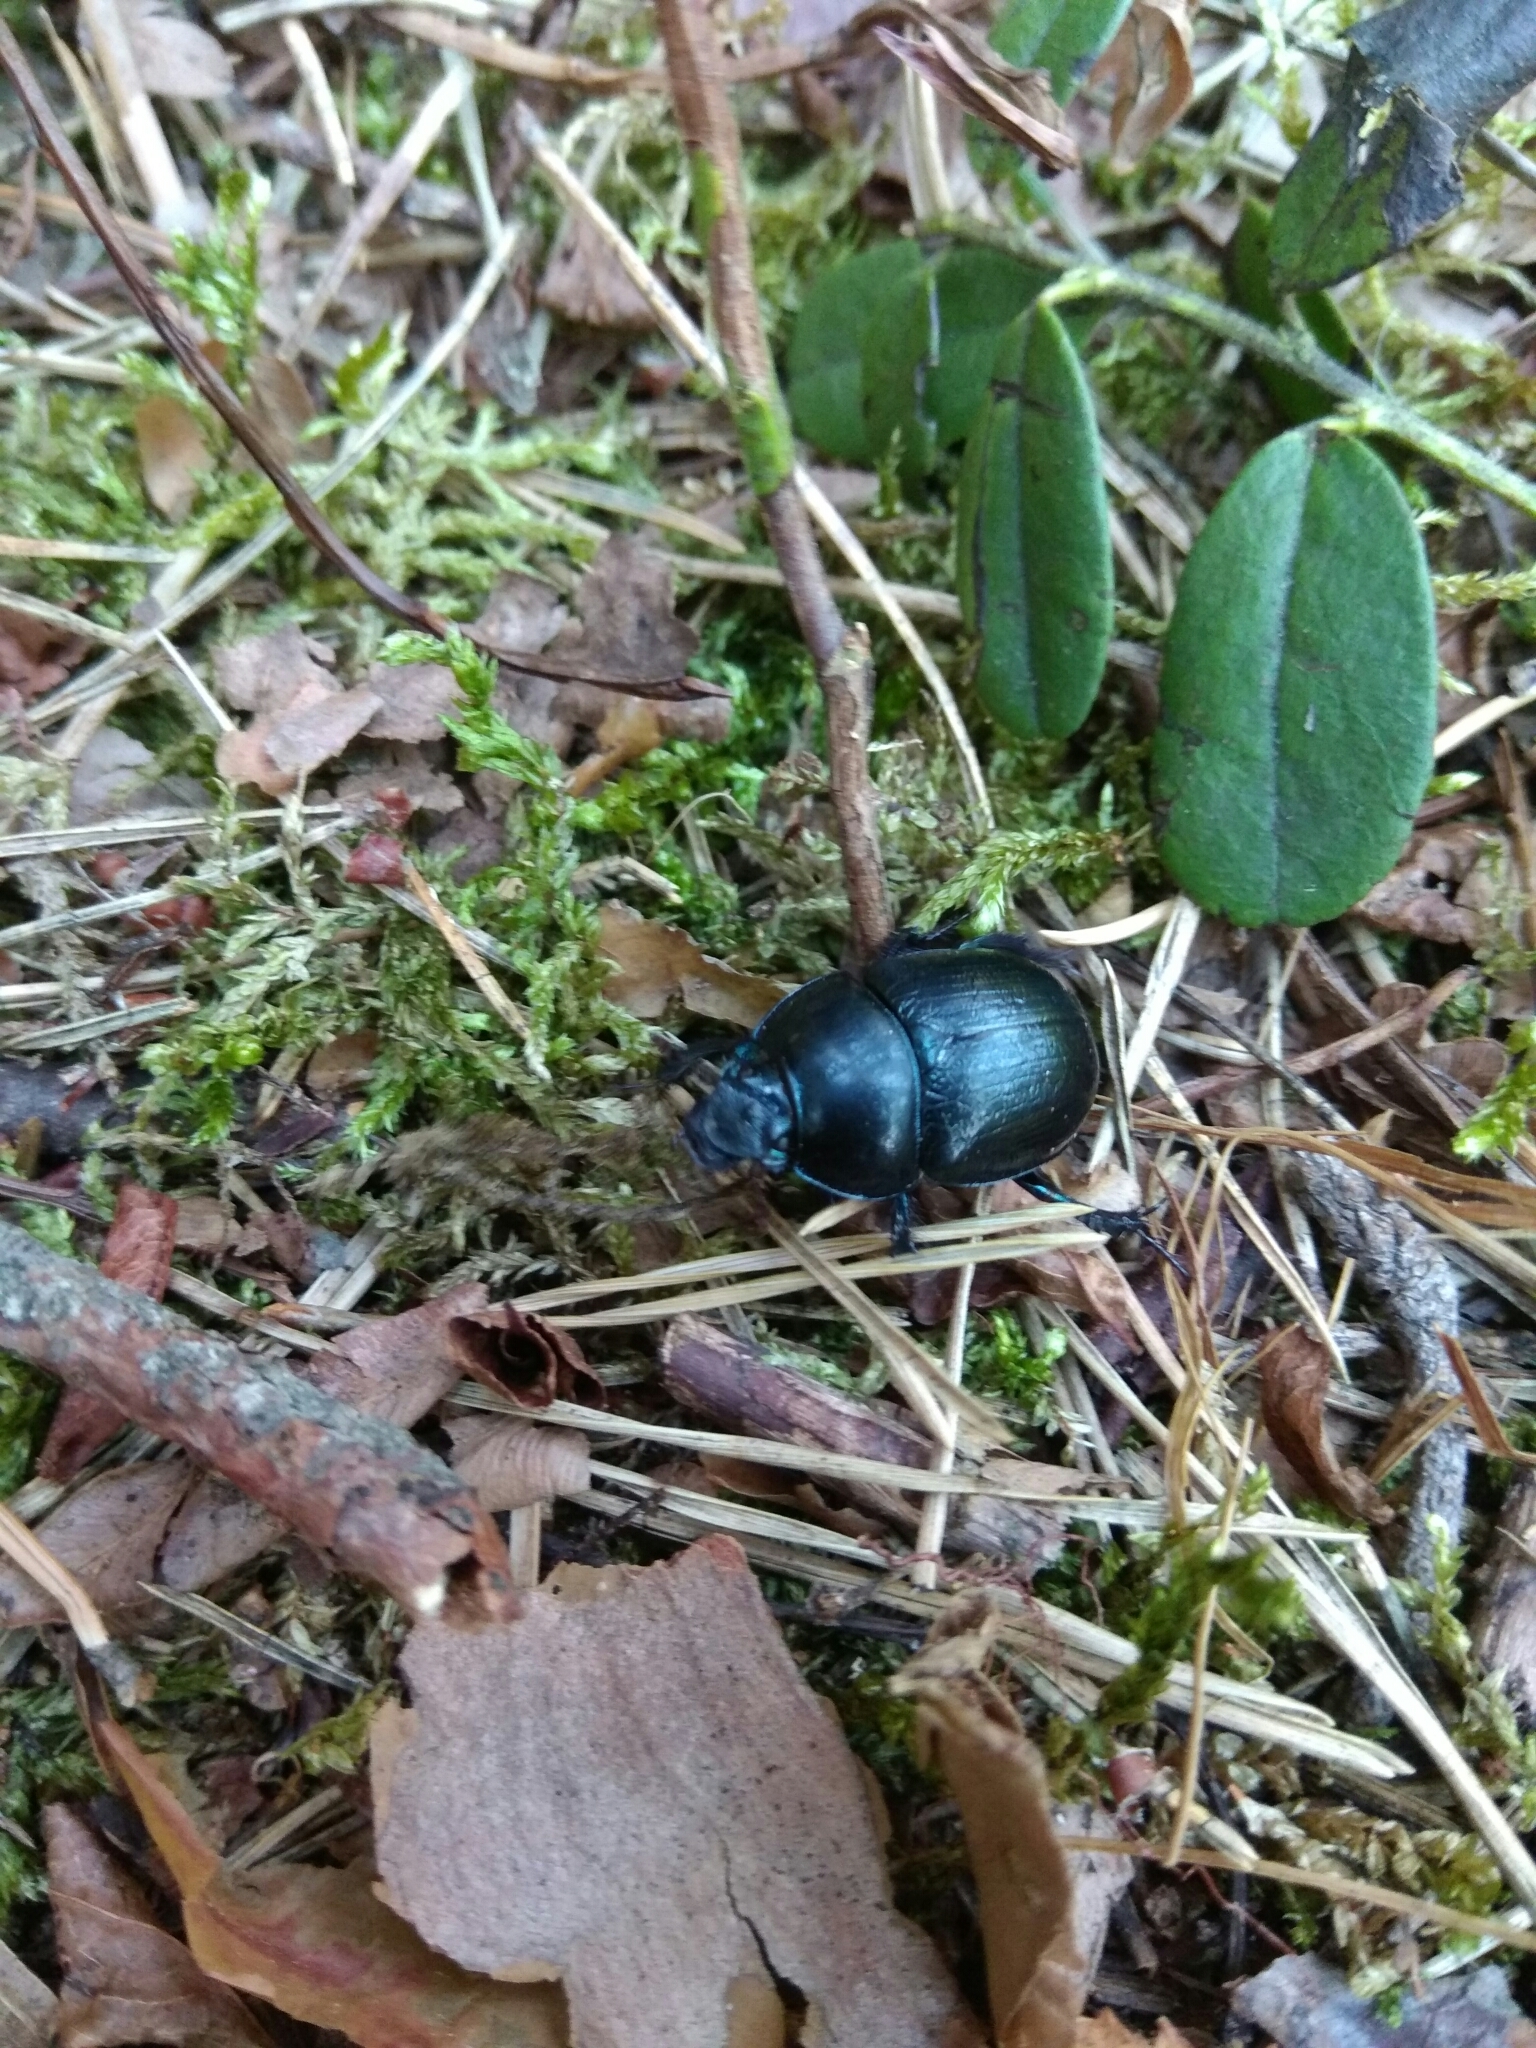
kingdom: Animalia
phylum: Arthropoda
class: Insecta
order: Coleoptera
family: Geotrupidae
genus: Anoplotrupes
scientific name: Anoplotrupes stercorosus
